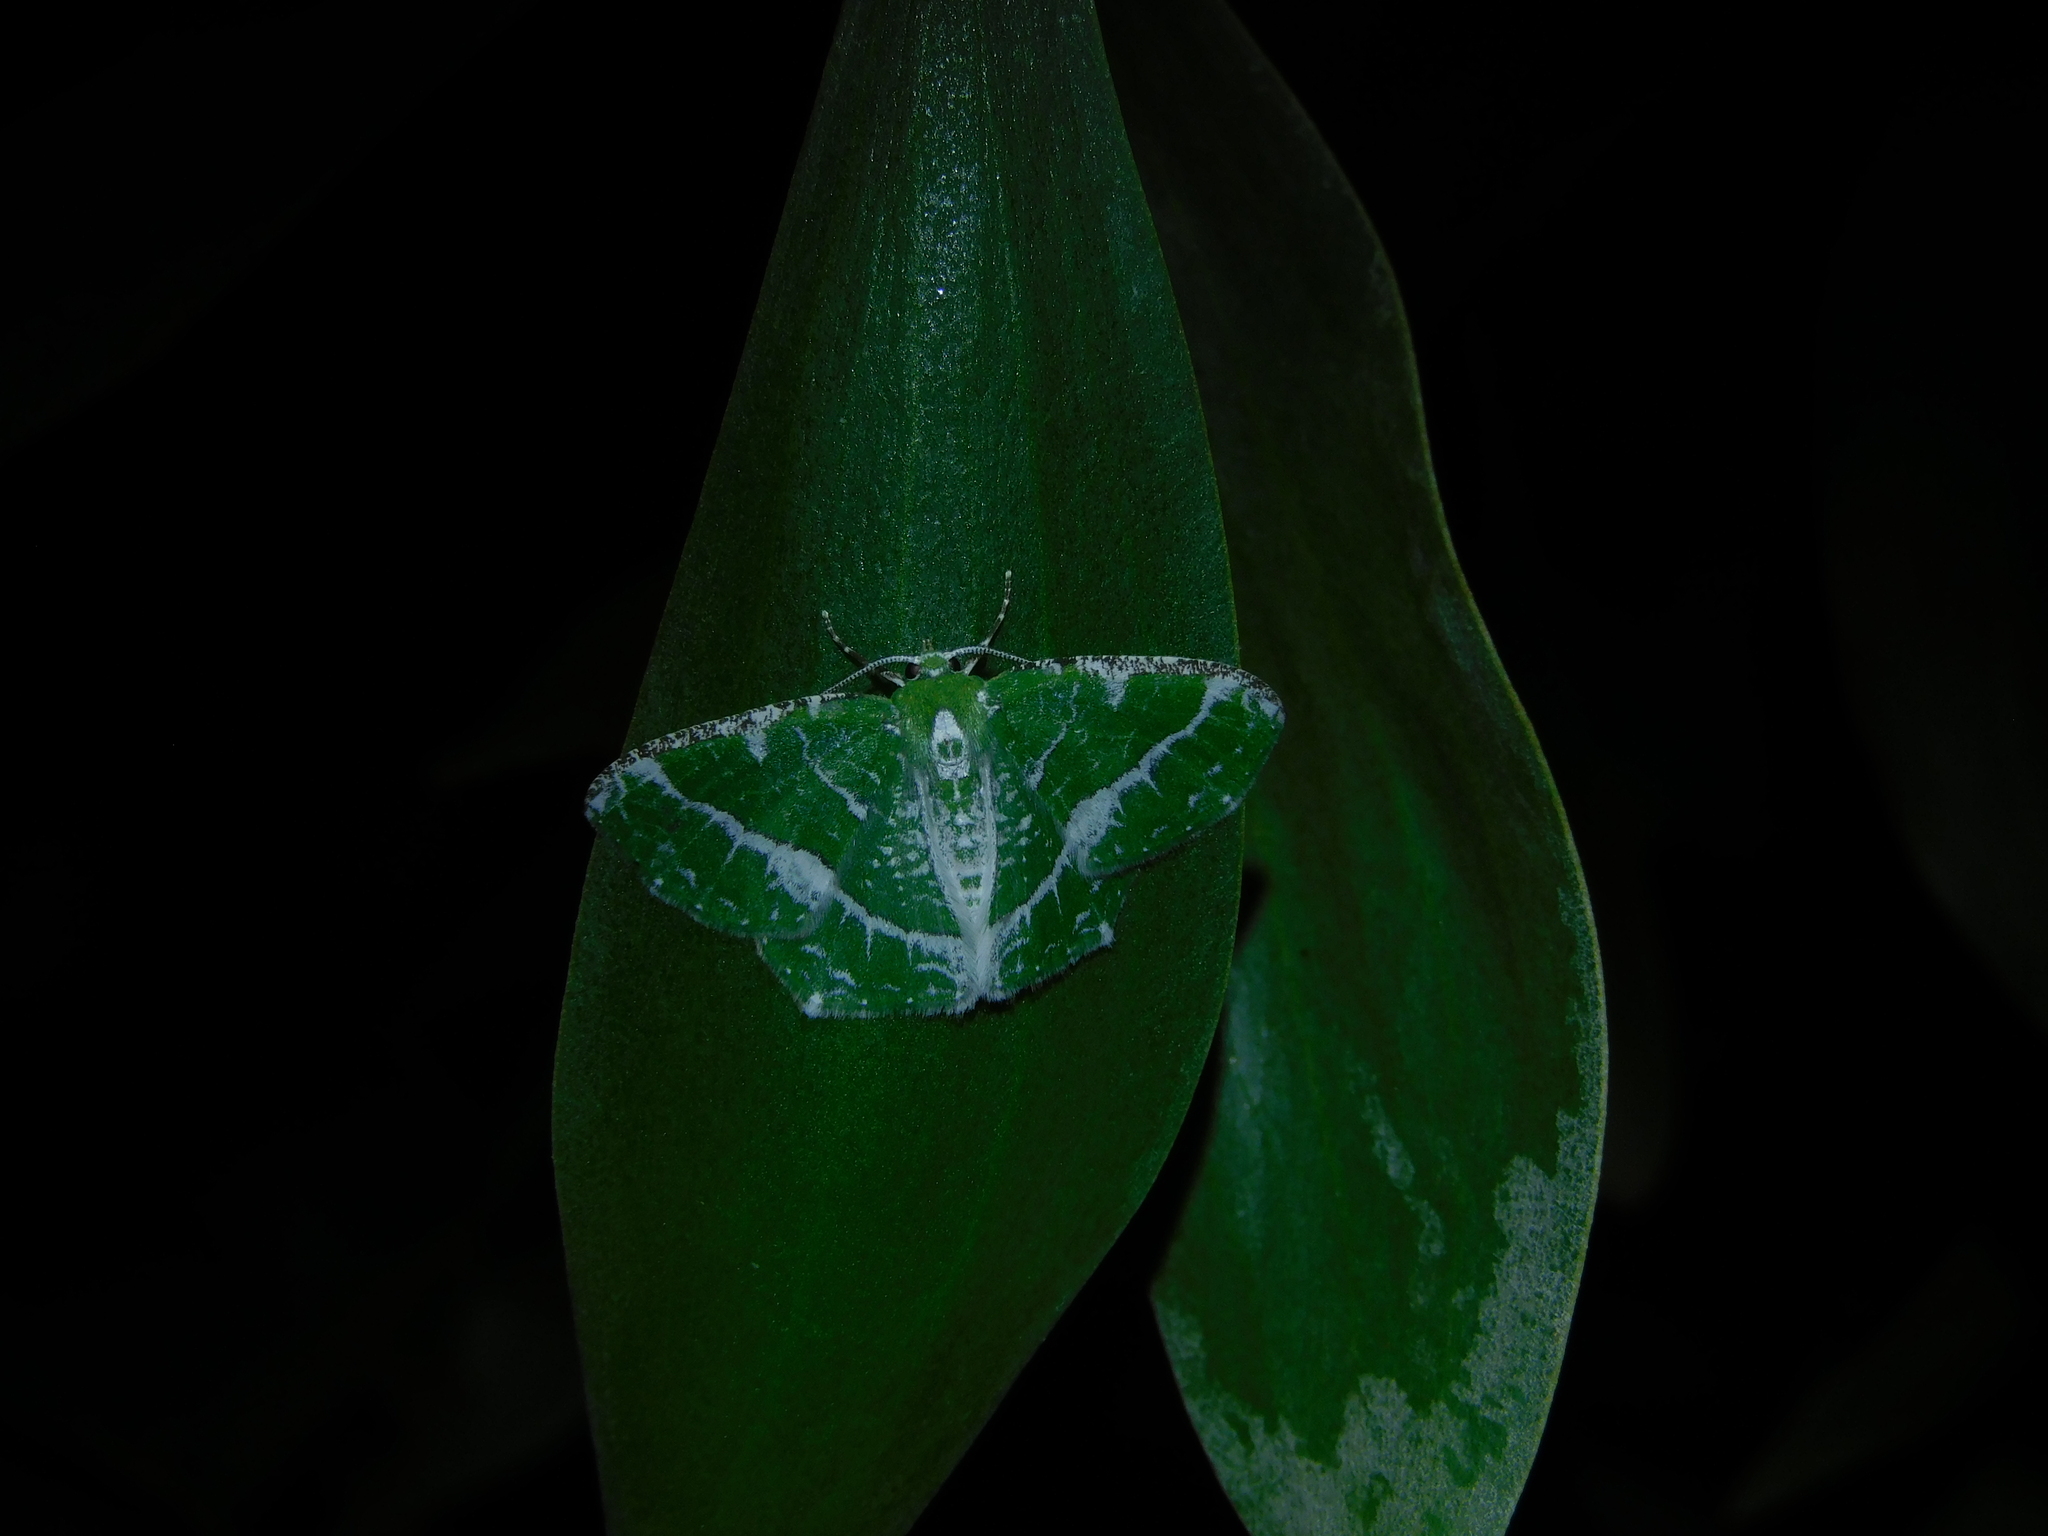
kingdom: Animalia
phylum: Arthropoda
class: Insecta
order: Lepidoptera
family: Geometridae
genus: Eucyclodes
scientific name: Eucyclodes insperata
